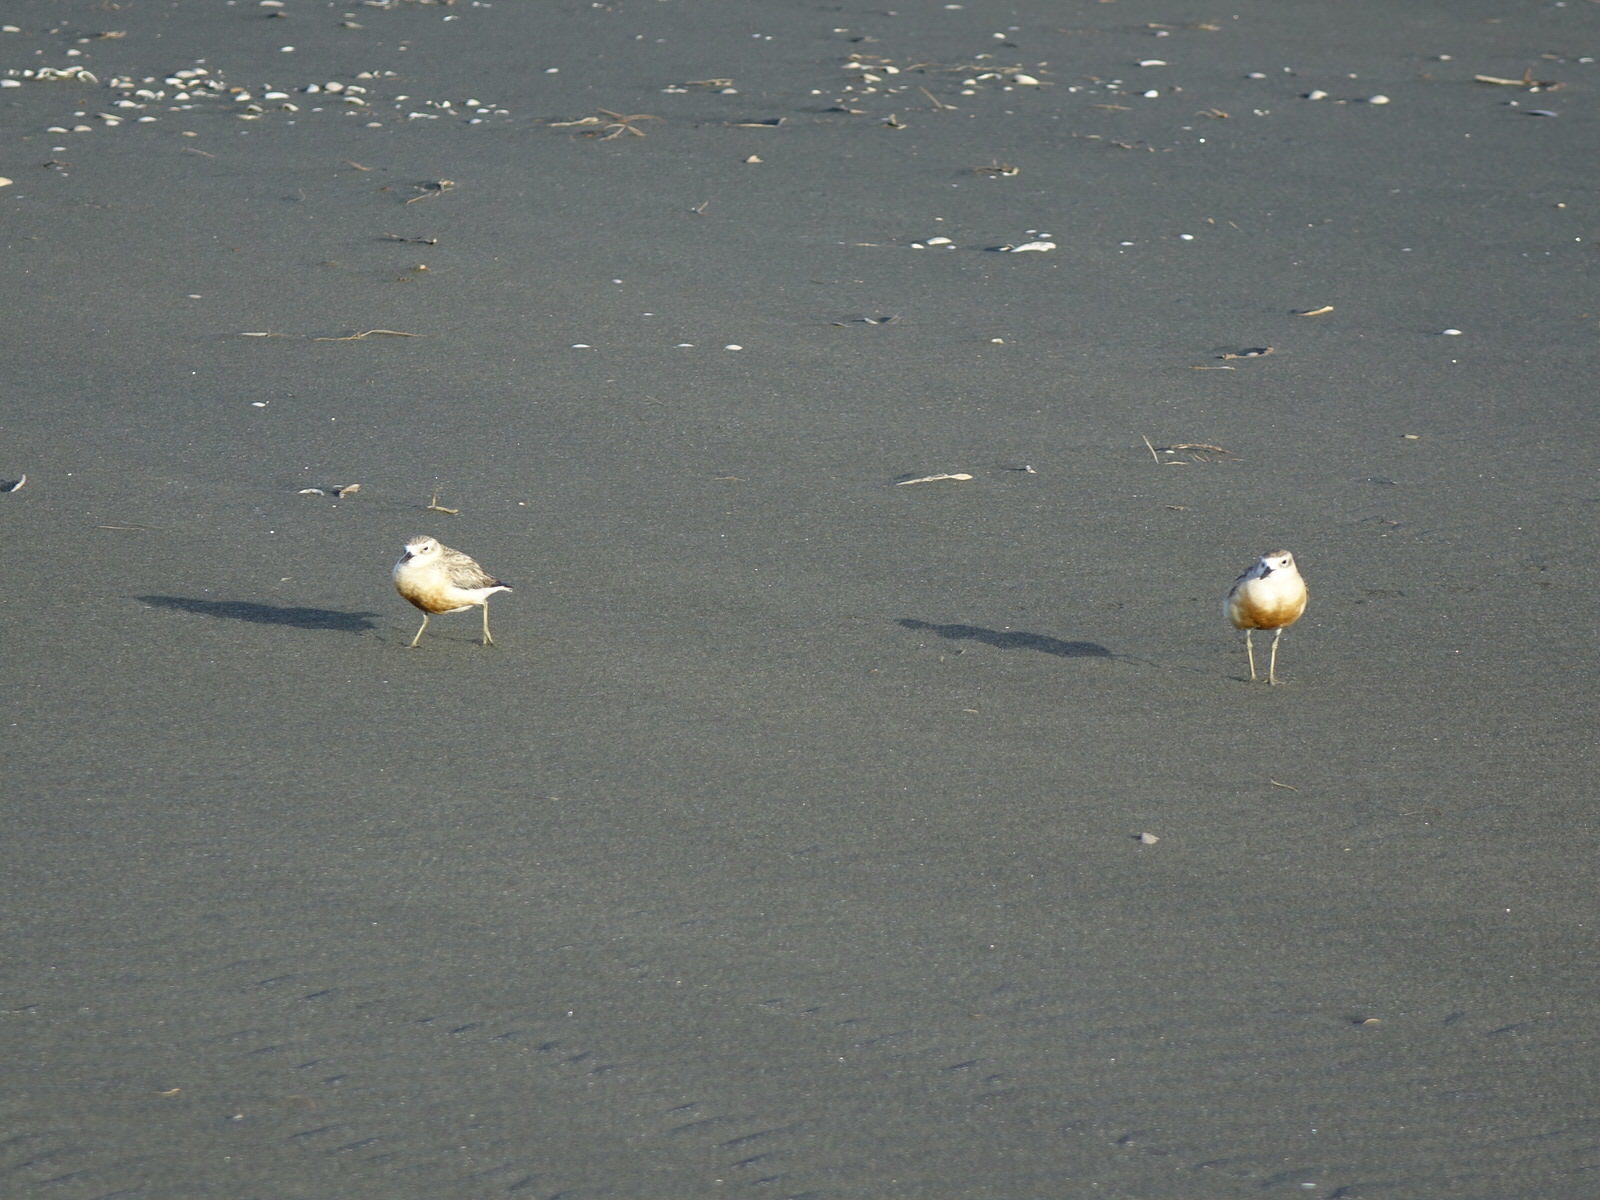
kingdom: Animalia
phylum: Chordata
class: Aves
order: Charadriiformes
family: Charadriidae
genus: Anarhynchus
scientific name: Anarhynchus
